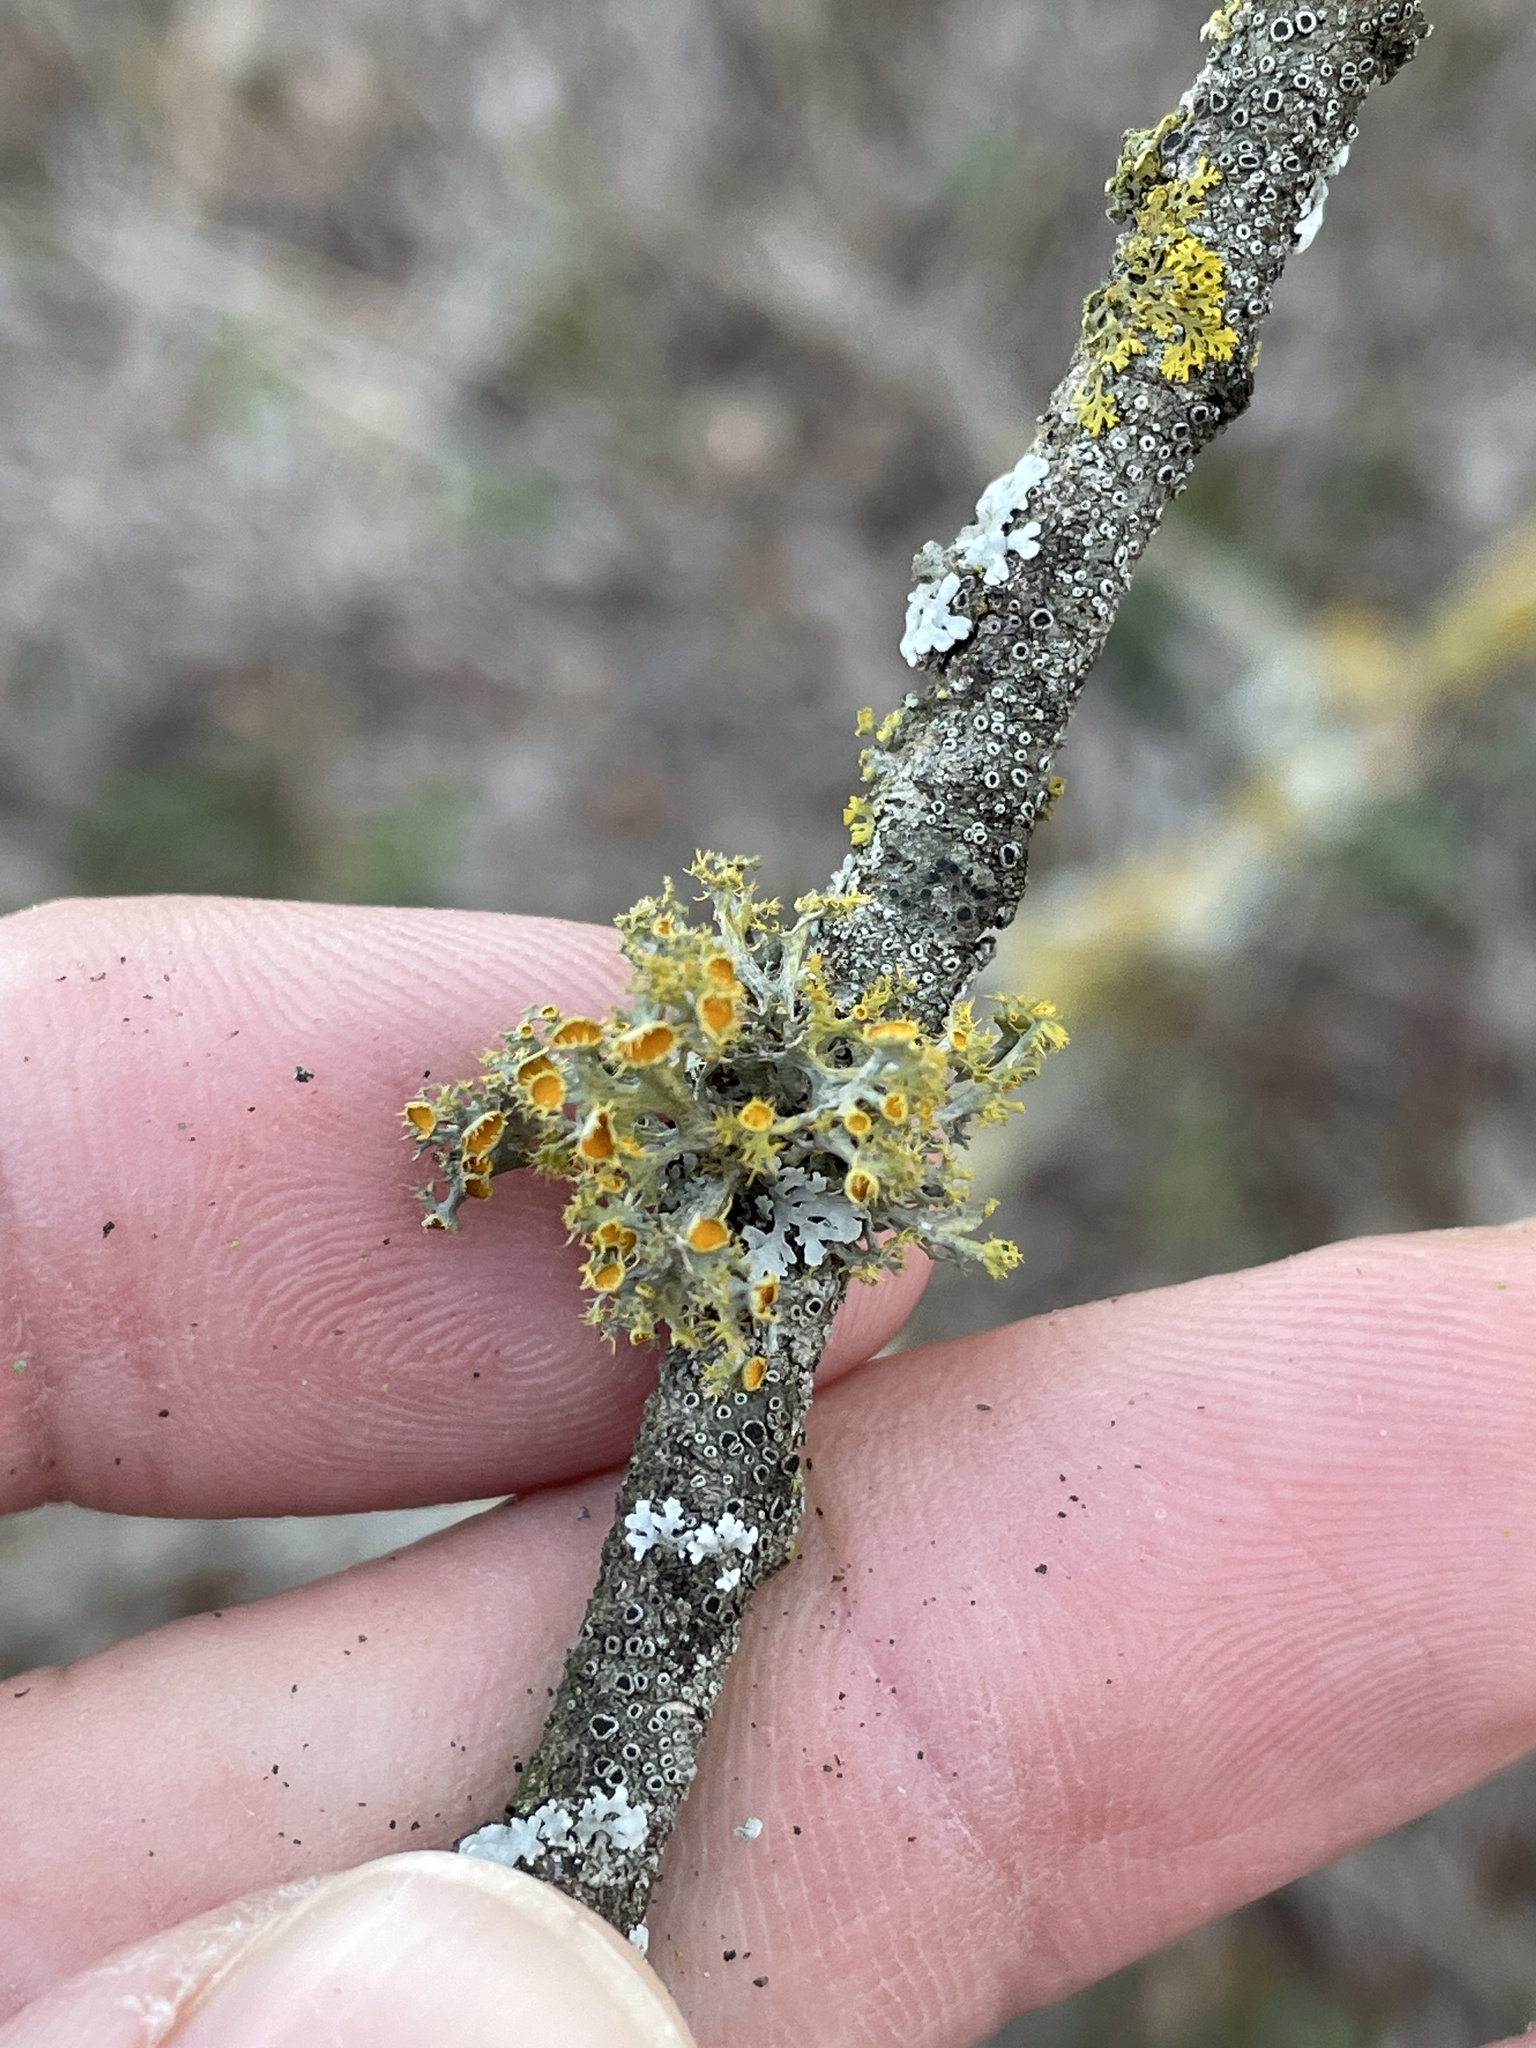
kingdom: Fungi
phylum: Ascomycota
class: Lecanoromycetes
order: Teloschistales
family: Teloschistaceae
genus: Niorma
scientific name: Niorma chrysophthalma
